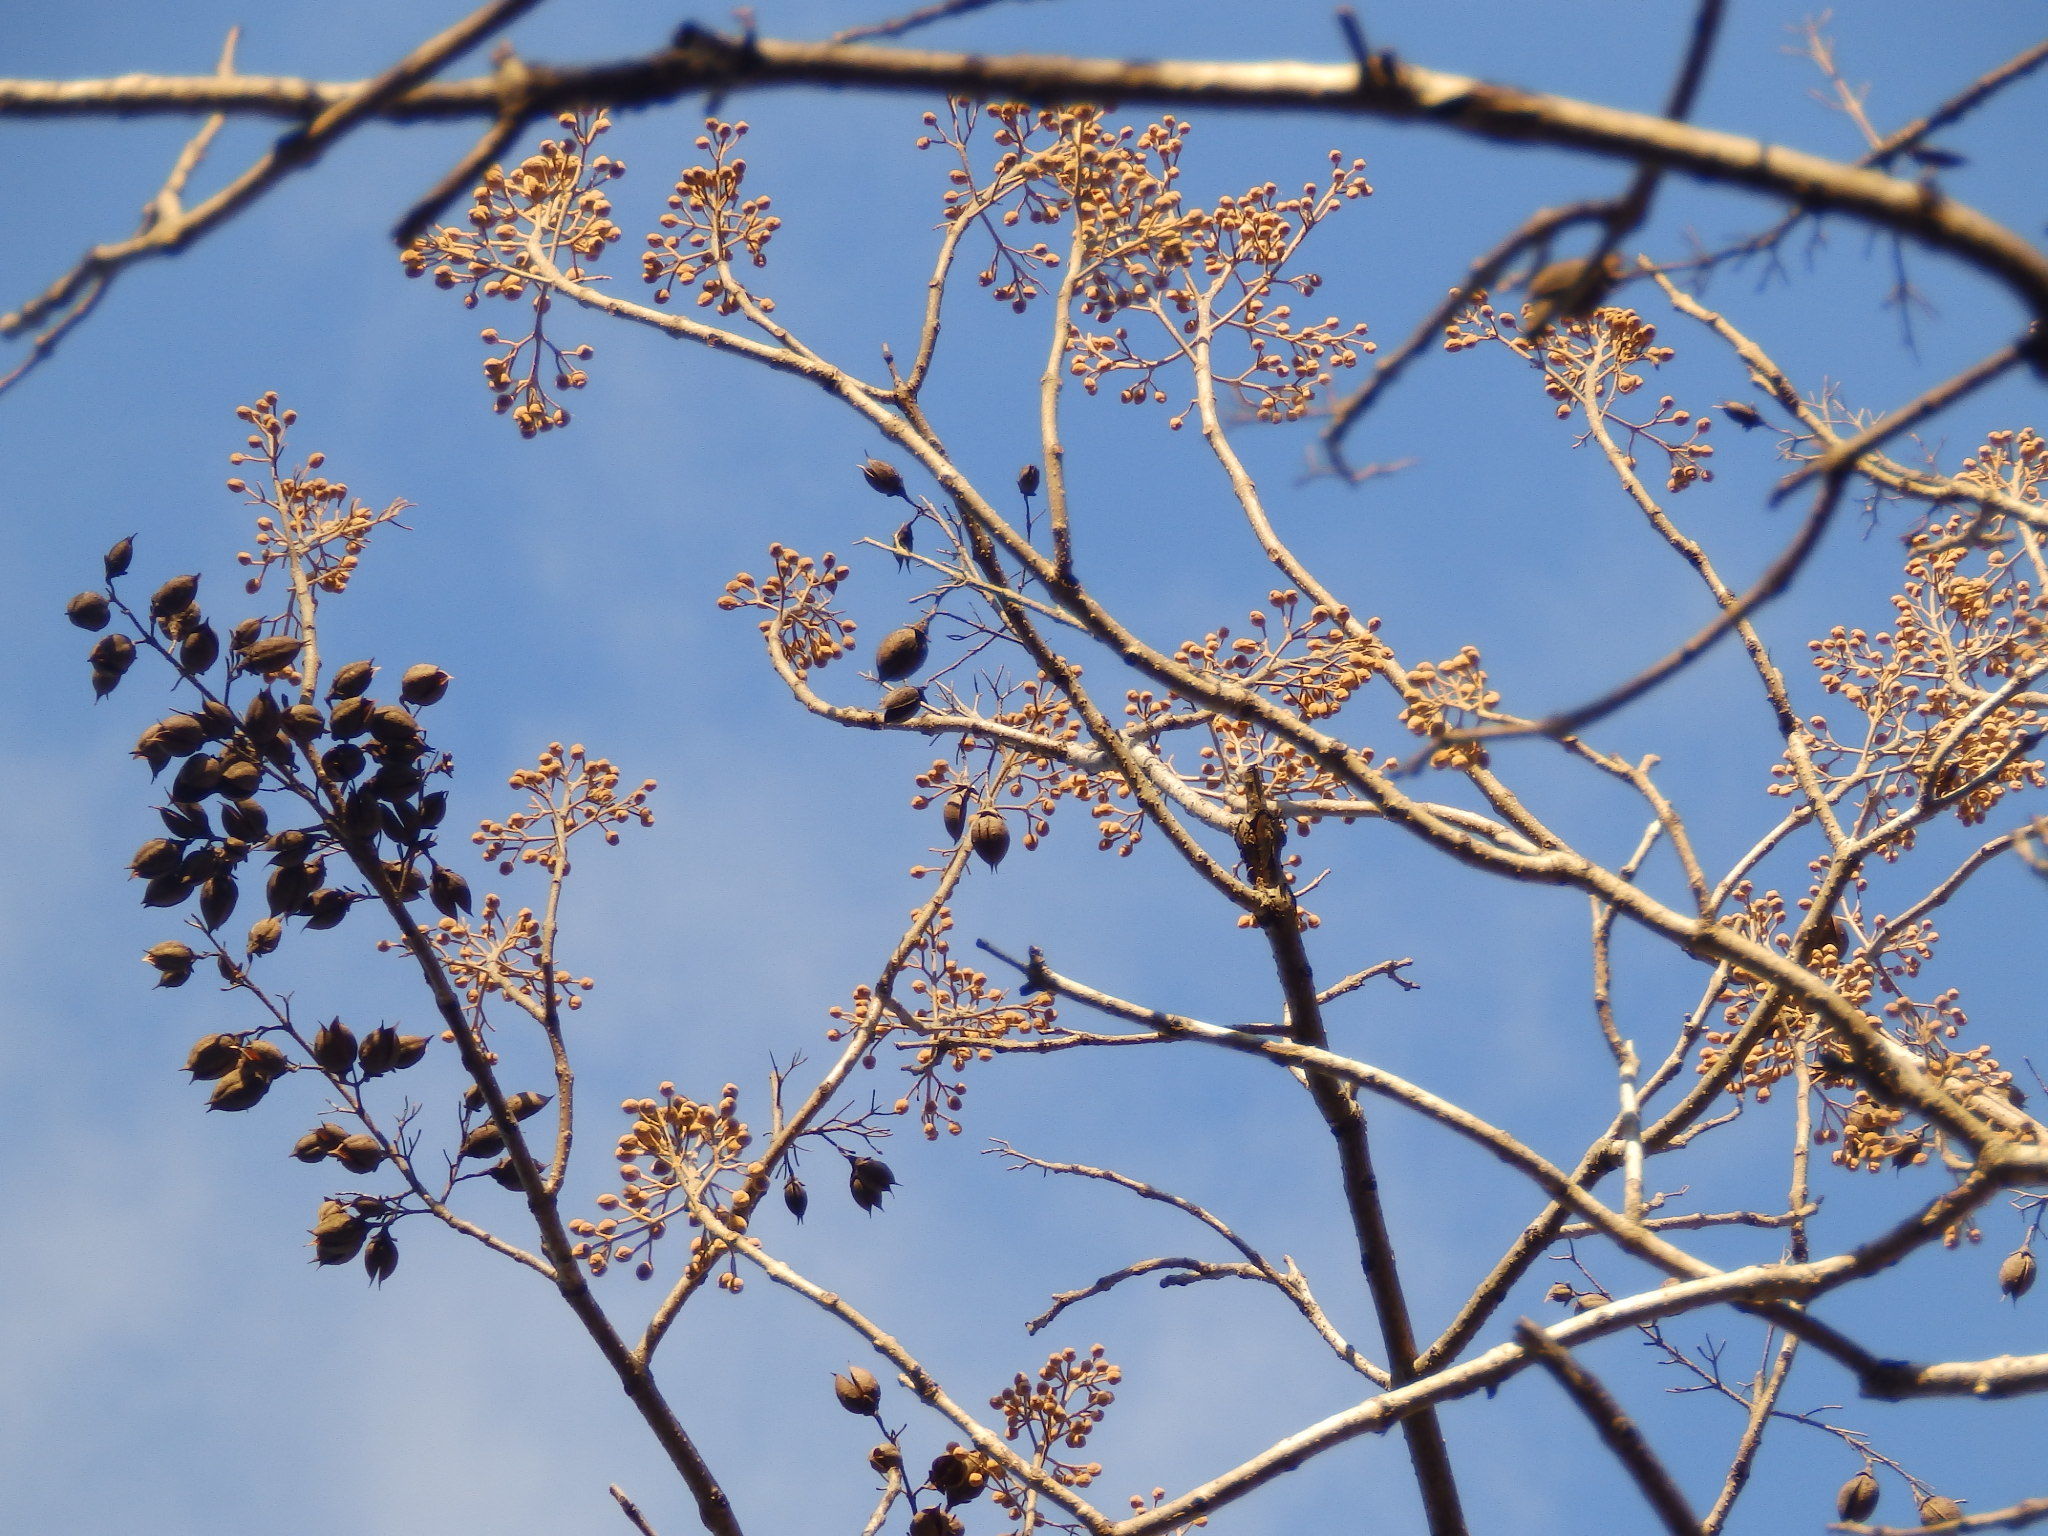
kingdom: Plantae
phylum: Tracheophyta
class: Magnoliopsida
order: Lamiales
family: Paulowniaceae
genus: Paulownia
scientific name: Paulownia tomentosa
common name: Foxglove-tree
